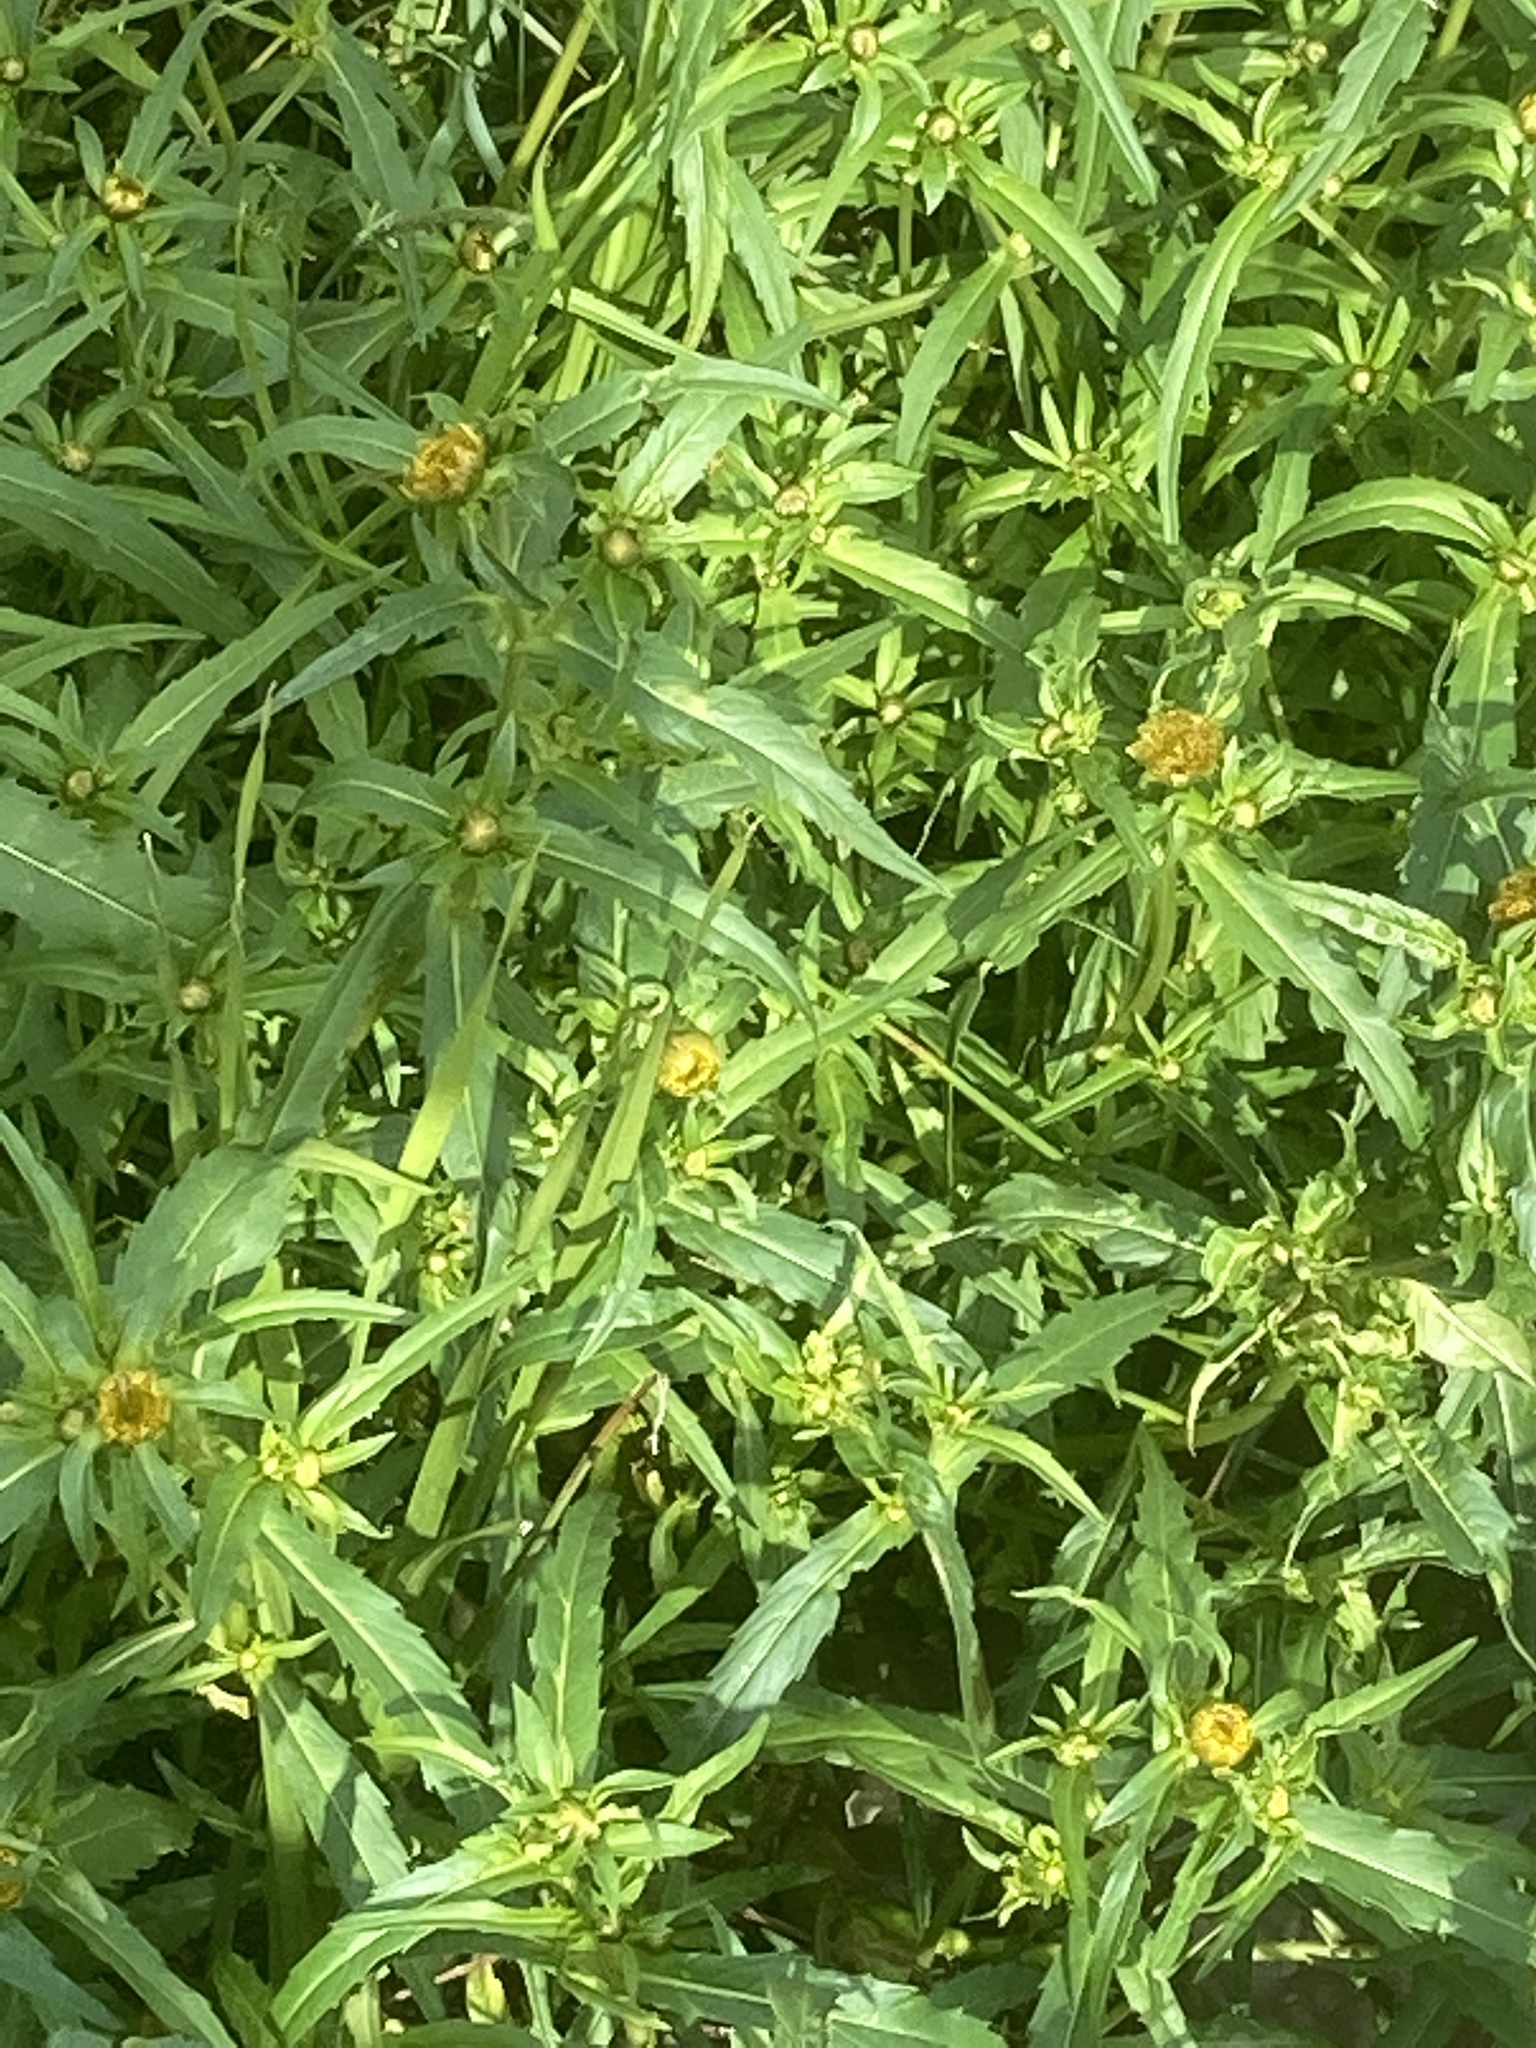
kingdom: Plantae
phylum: Tracheophyta
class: Magnoliopsida
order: Asterales
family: Asteraceae
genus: Bidens
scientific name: Bidens cernua
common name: Nodding bur-marigold
